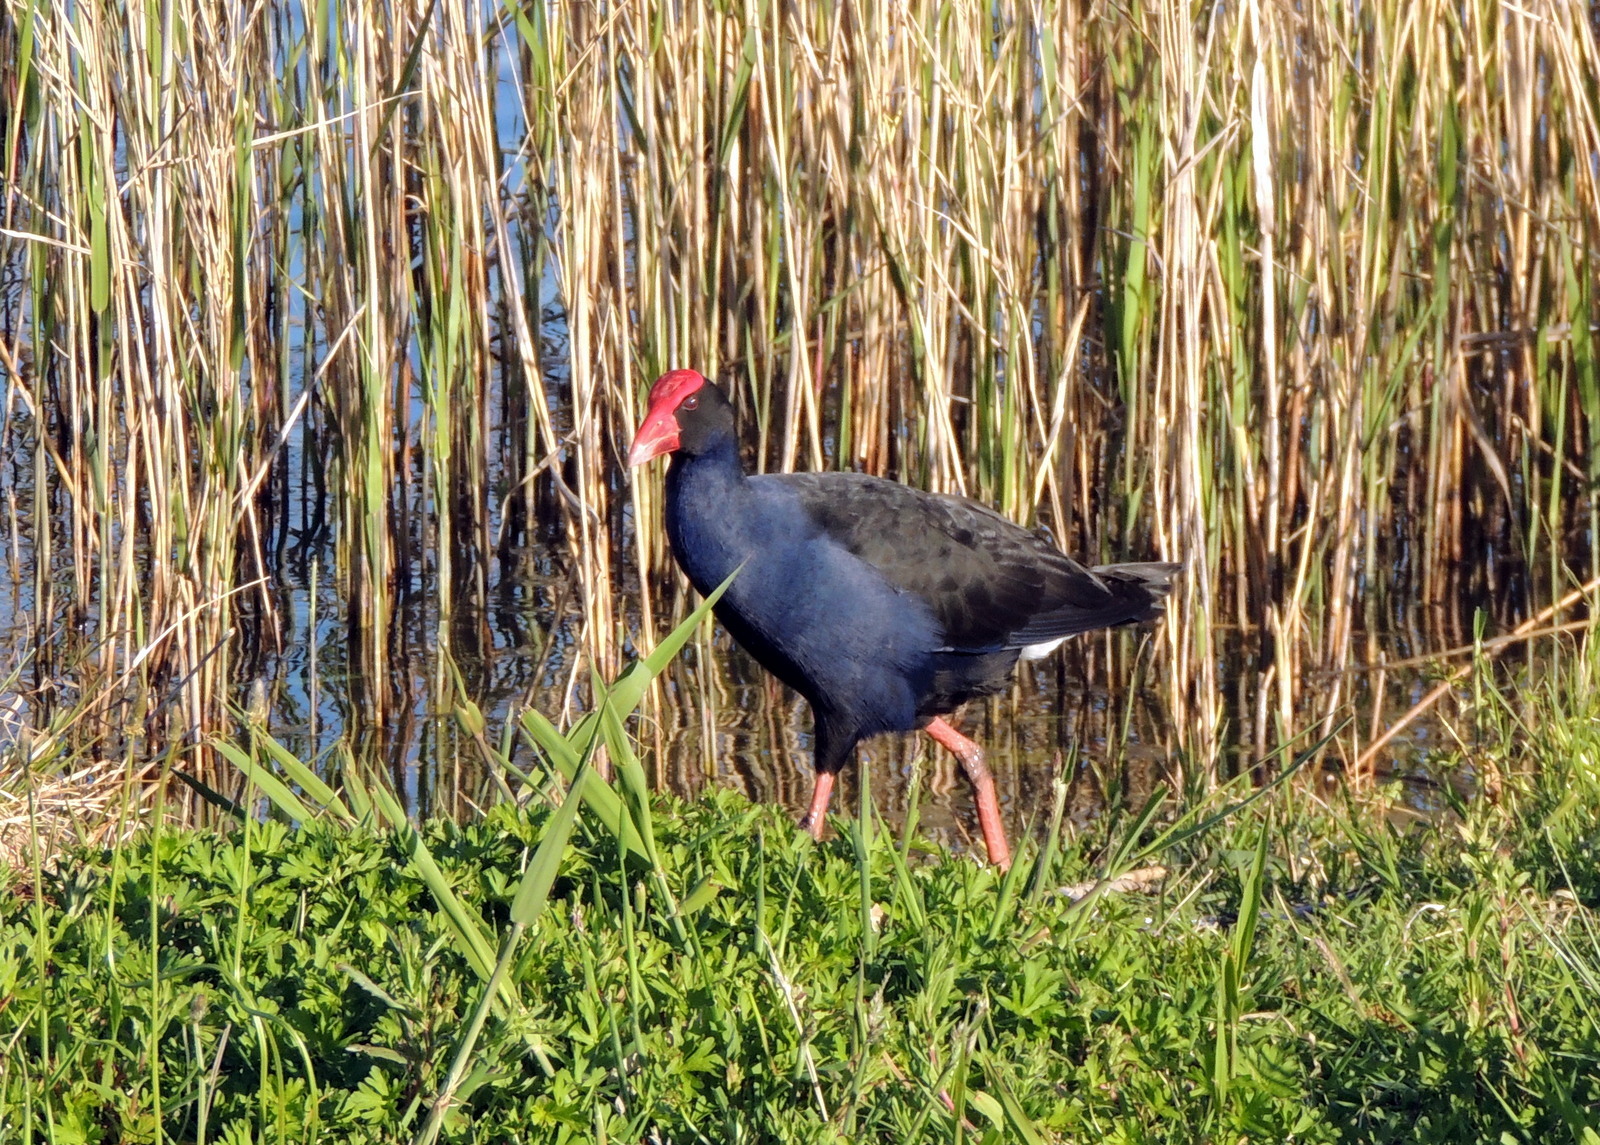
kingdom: Animalia
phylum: Chordata
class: Aves
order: Gruiformes
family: Rallidae
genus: Porphyrio
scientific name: Porphyrio melanotus
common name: Australasian swamphen
